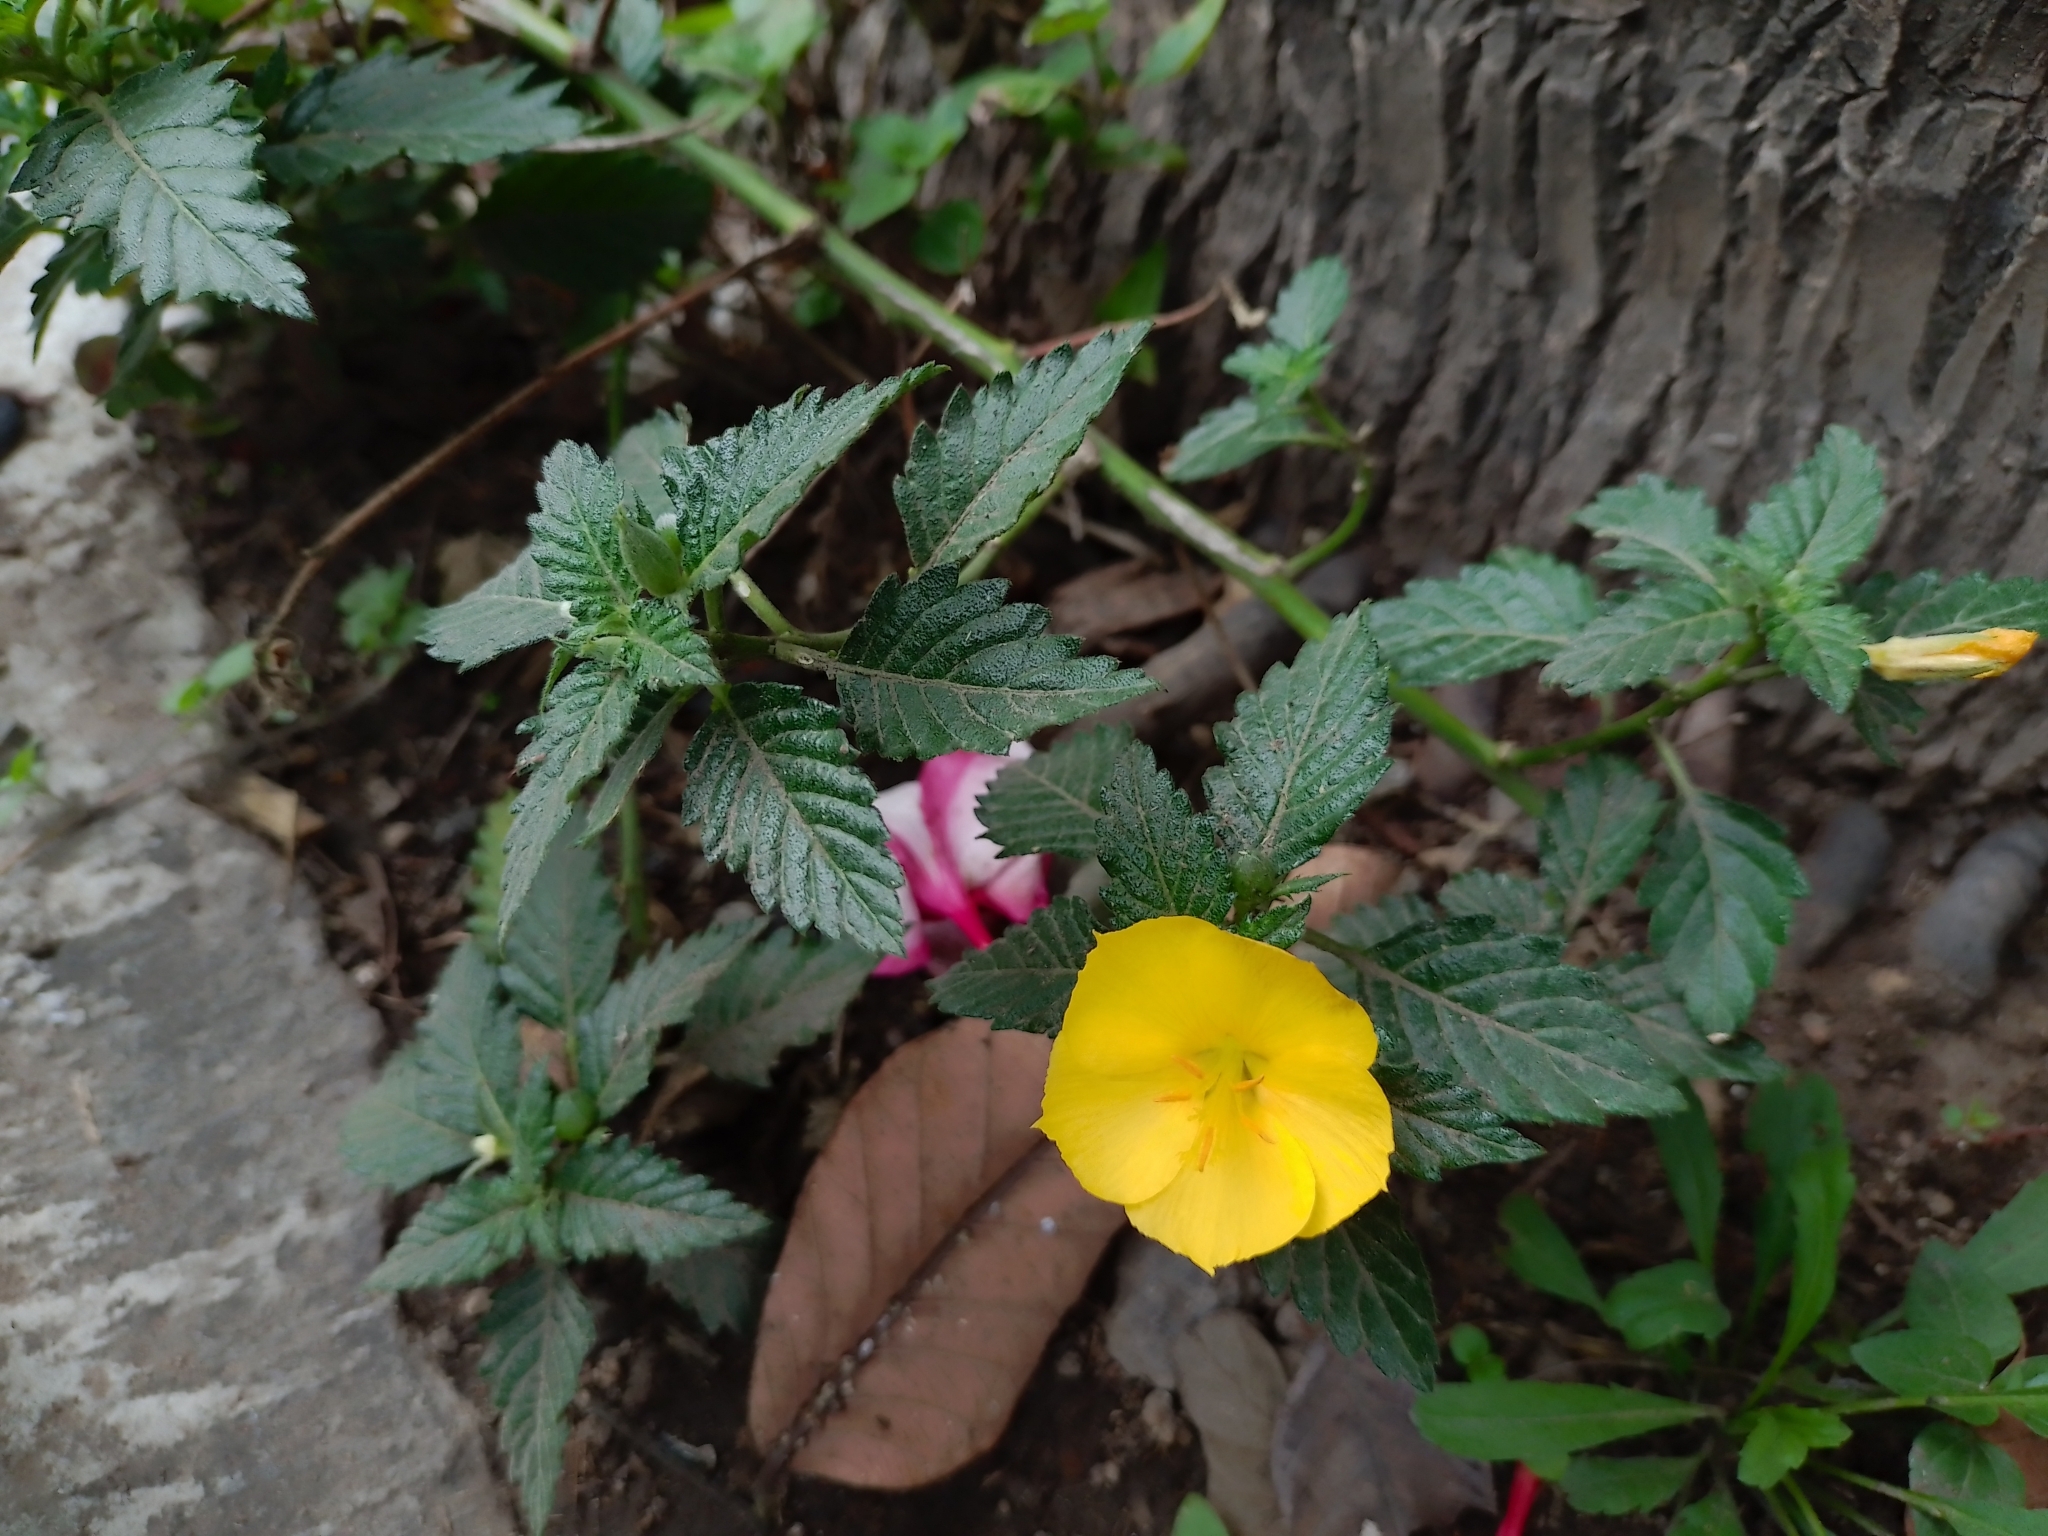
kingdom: Plantae
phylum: Tracheophyta
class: Magnoliopsida
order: Malpighiales
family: Turneraceae
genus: Turnera
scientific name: Turnera ulmifolia
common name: Ramgoat dashalong
